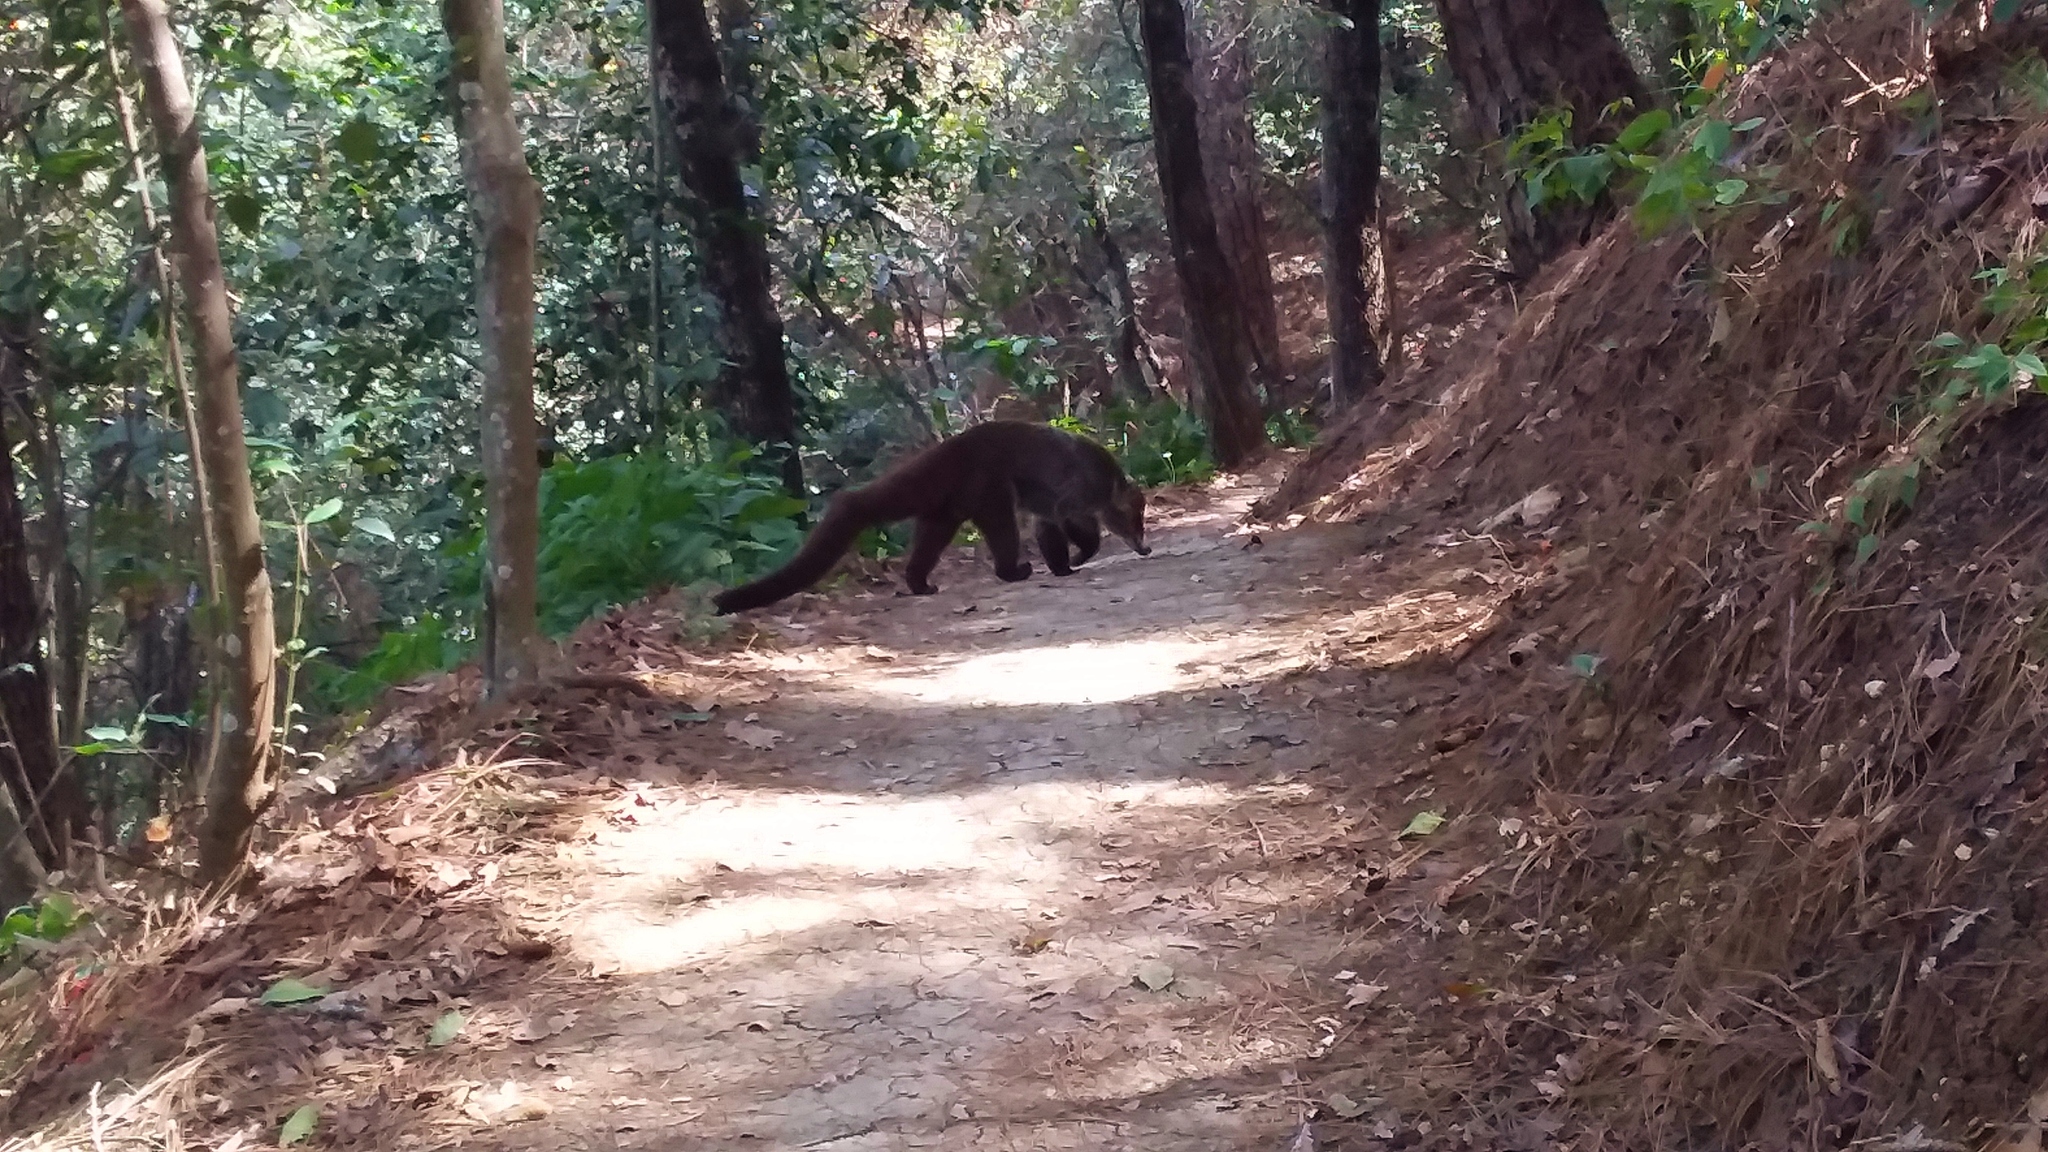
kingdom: Animalia
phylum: Chordata
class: Mammalia
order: Carnivora
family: Procyonidae
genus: Nasua
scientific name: Nasua narica
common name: White-nosed coati
